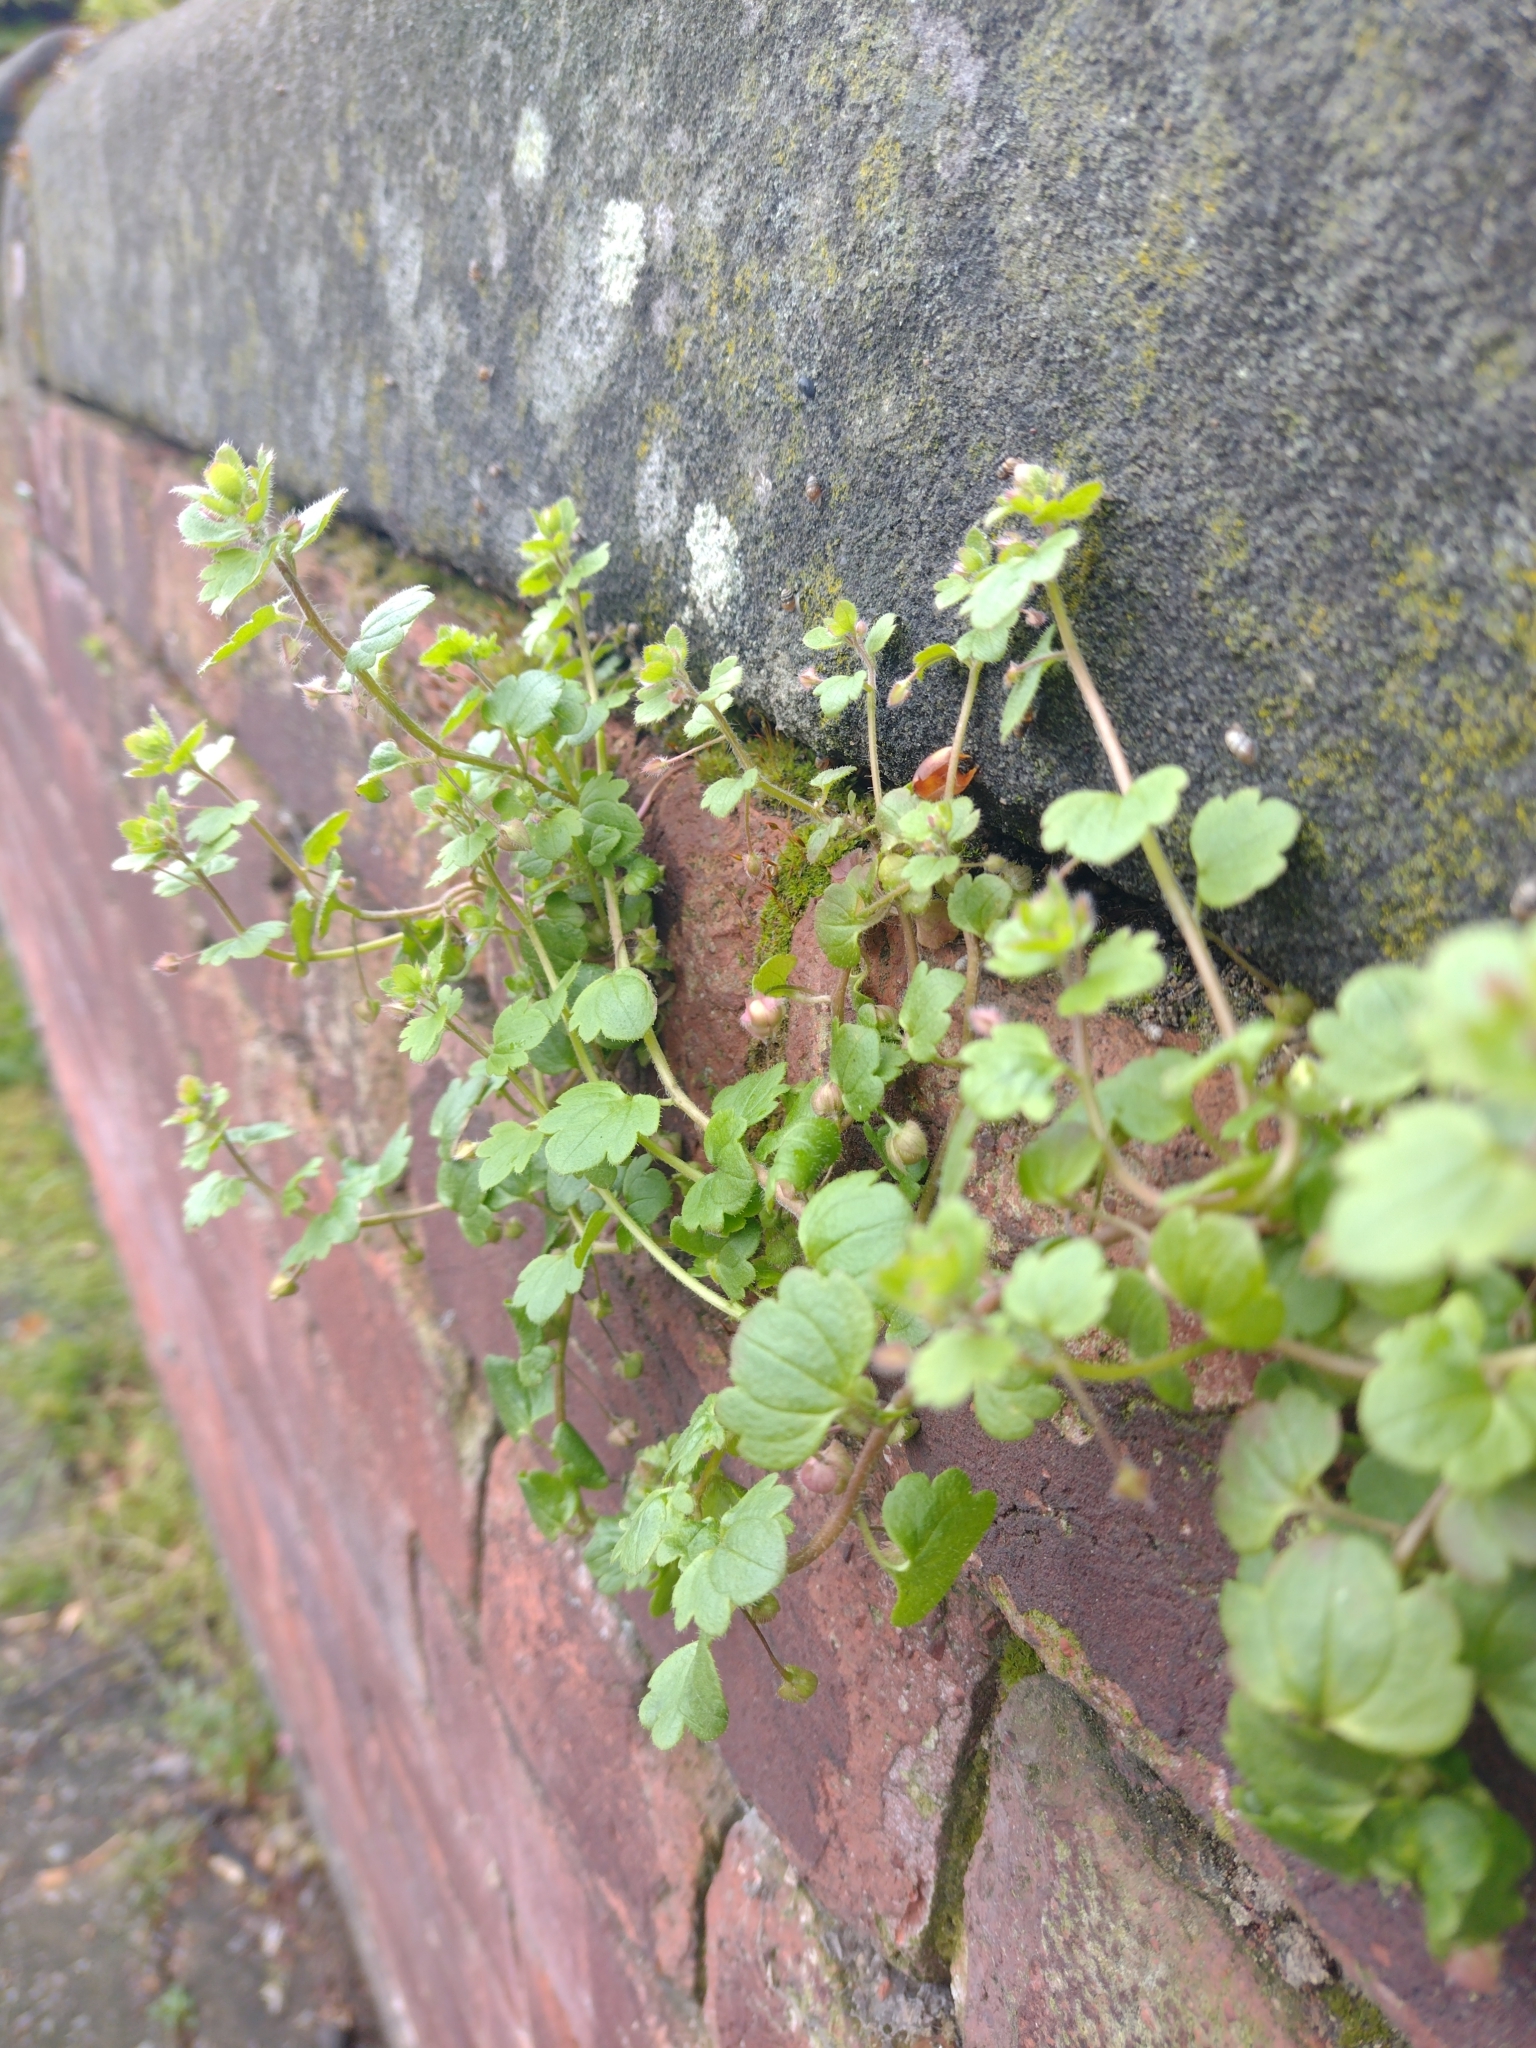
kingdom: Plantae
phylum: Tracheophyta
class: Magnoliopsida
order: Lamiales
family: Plantaginaceae
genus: Cymbalaria
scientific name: Cymbalaria muralis
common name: Ivy-leaved toadflax
